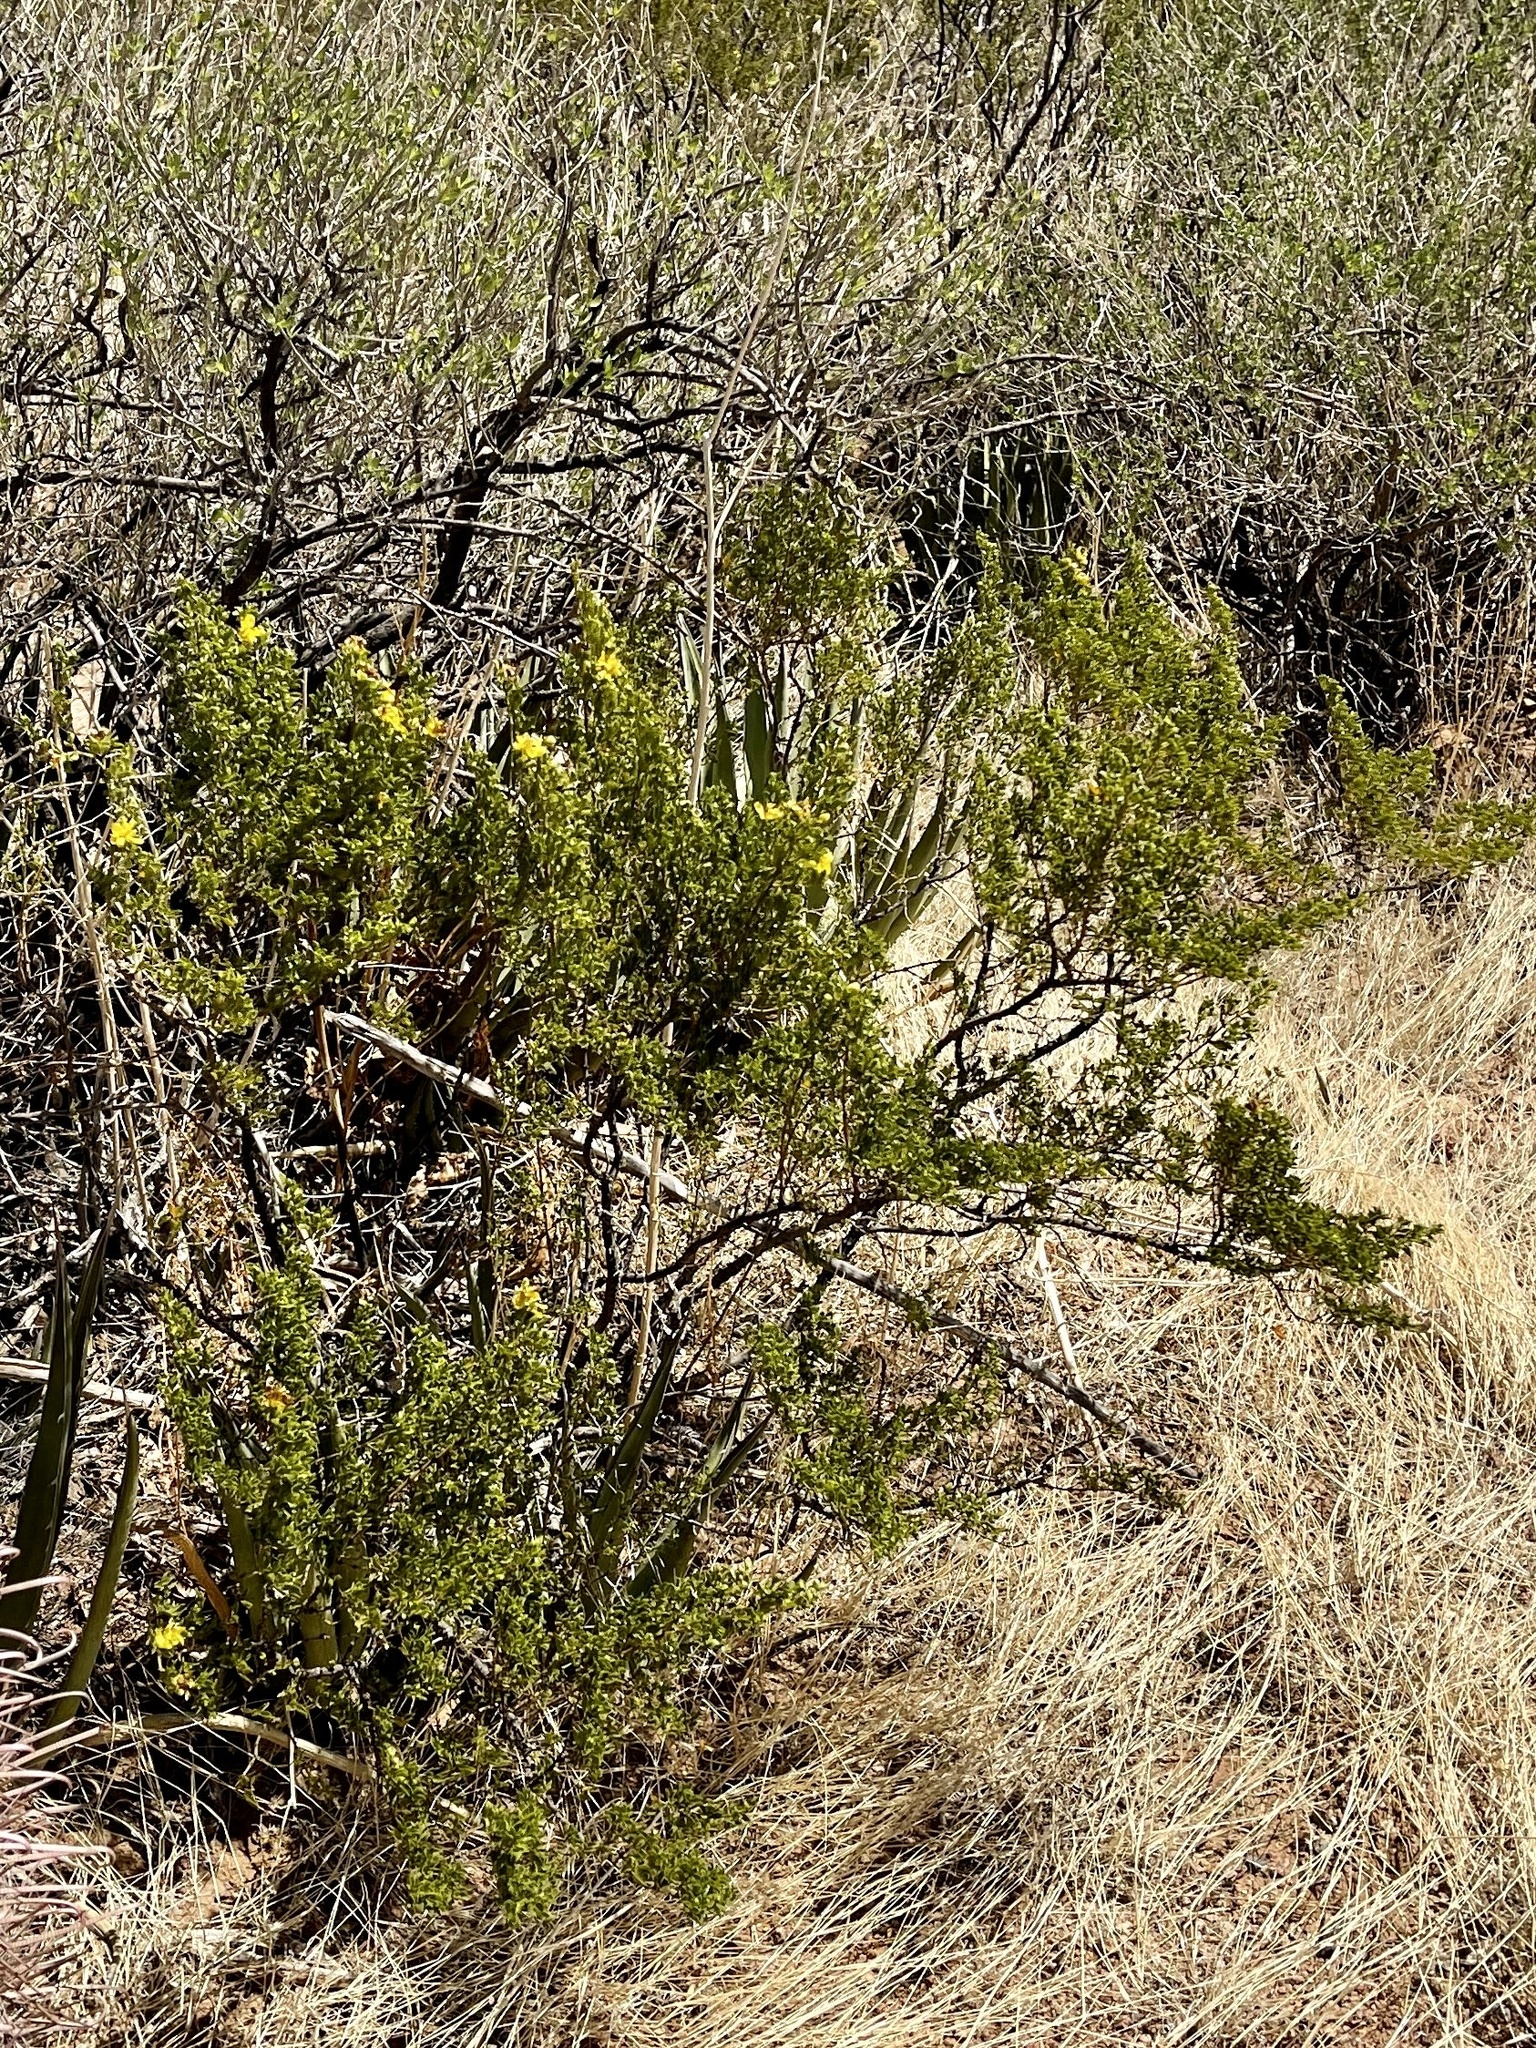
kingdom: Plantae
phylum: Tracheophyta
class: Magnoliopsida
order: Zygophyllales
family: Zygophyllaceae
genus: Larrea
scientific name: Larrea tridentata
